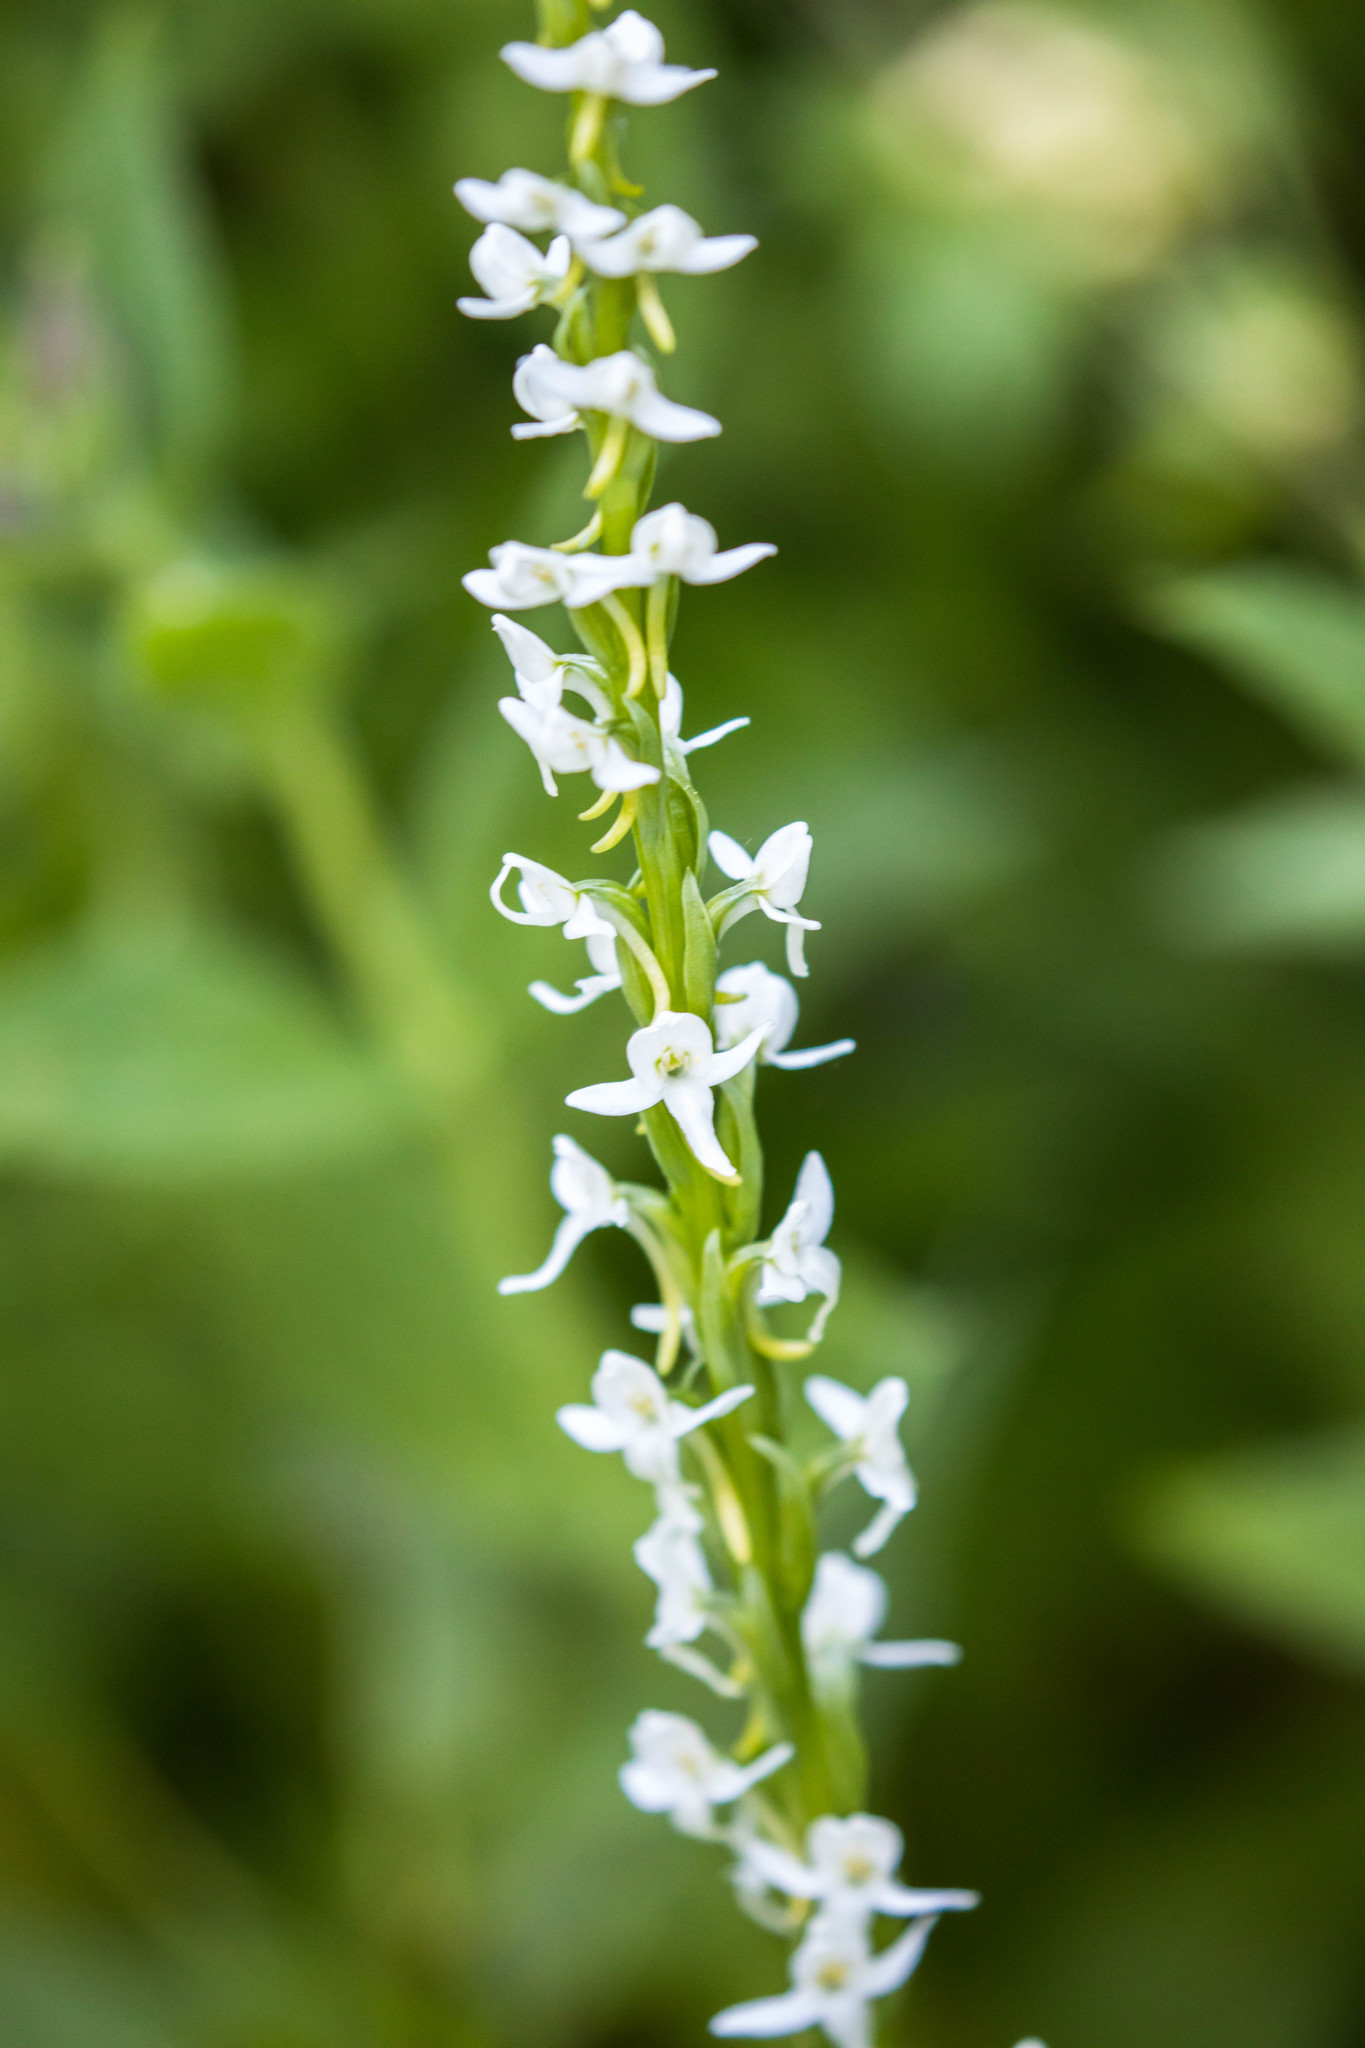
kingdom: Plantae
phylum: Tracheophyta
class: Liliopsida
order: Asparagales
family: Orchidaceae
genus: Platanthera
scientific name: Platanthera dilatata
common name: Bog candles
